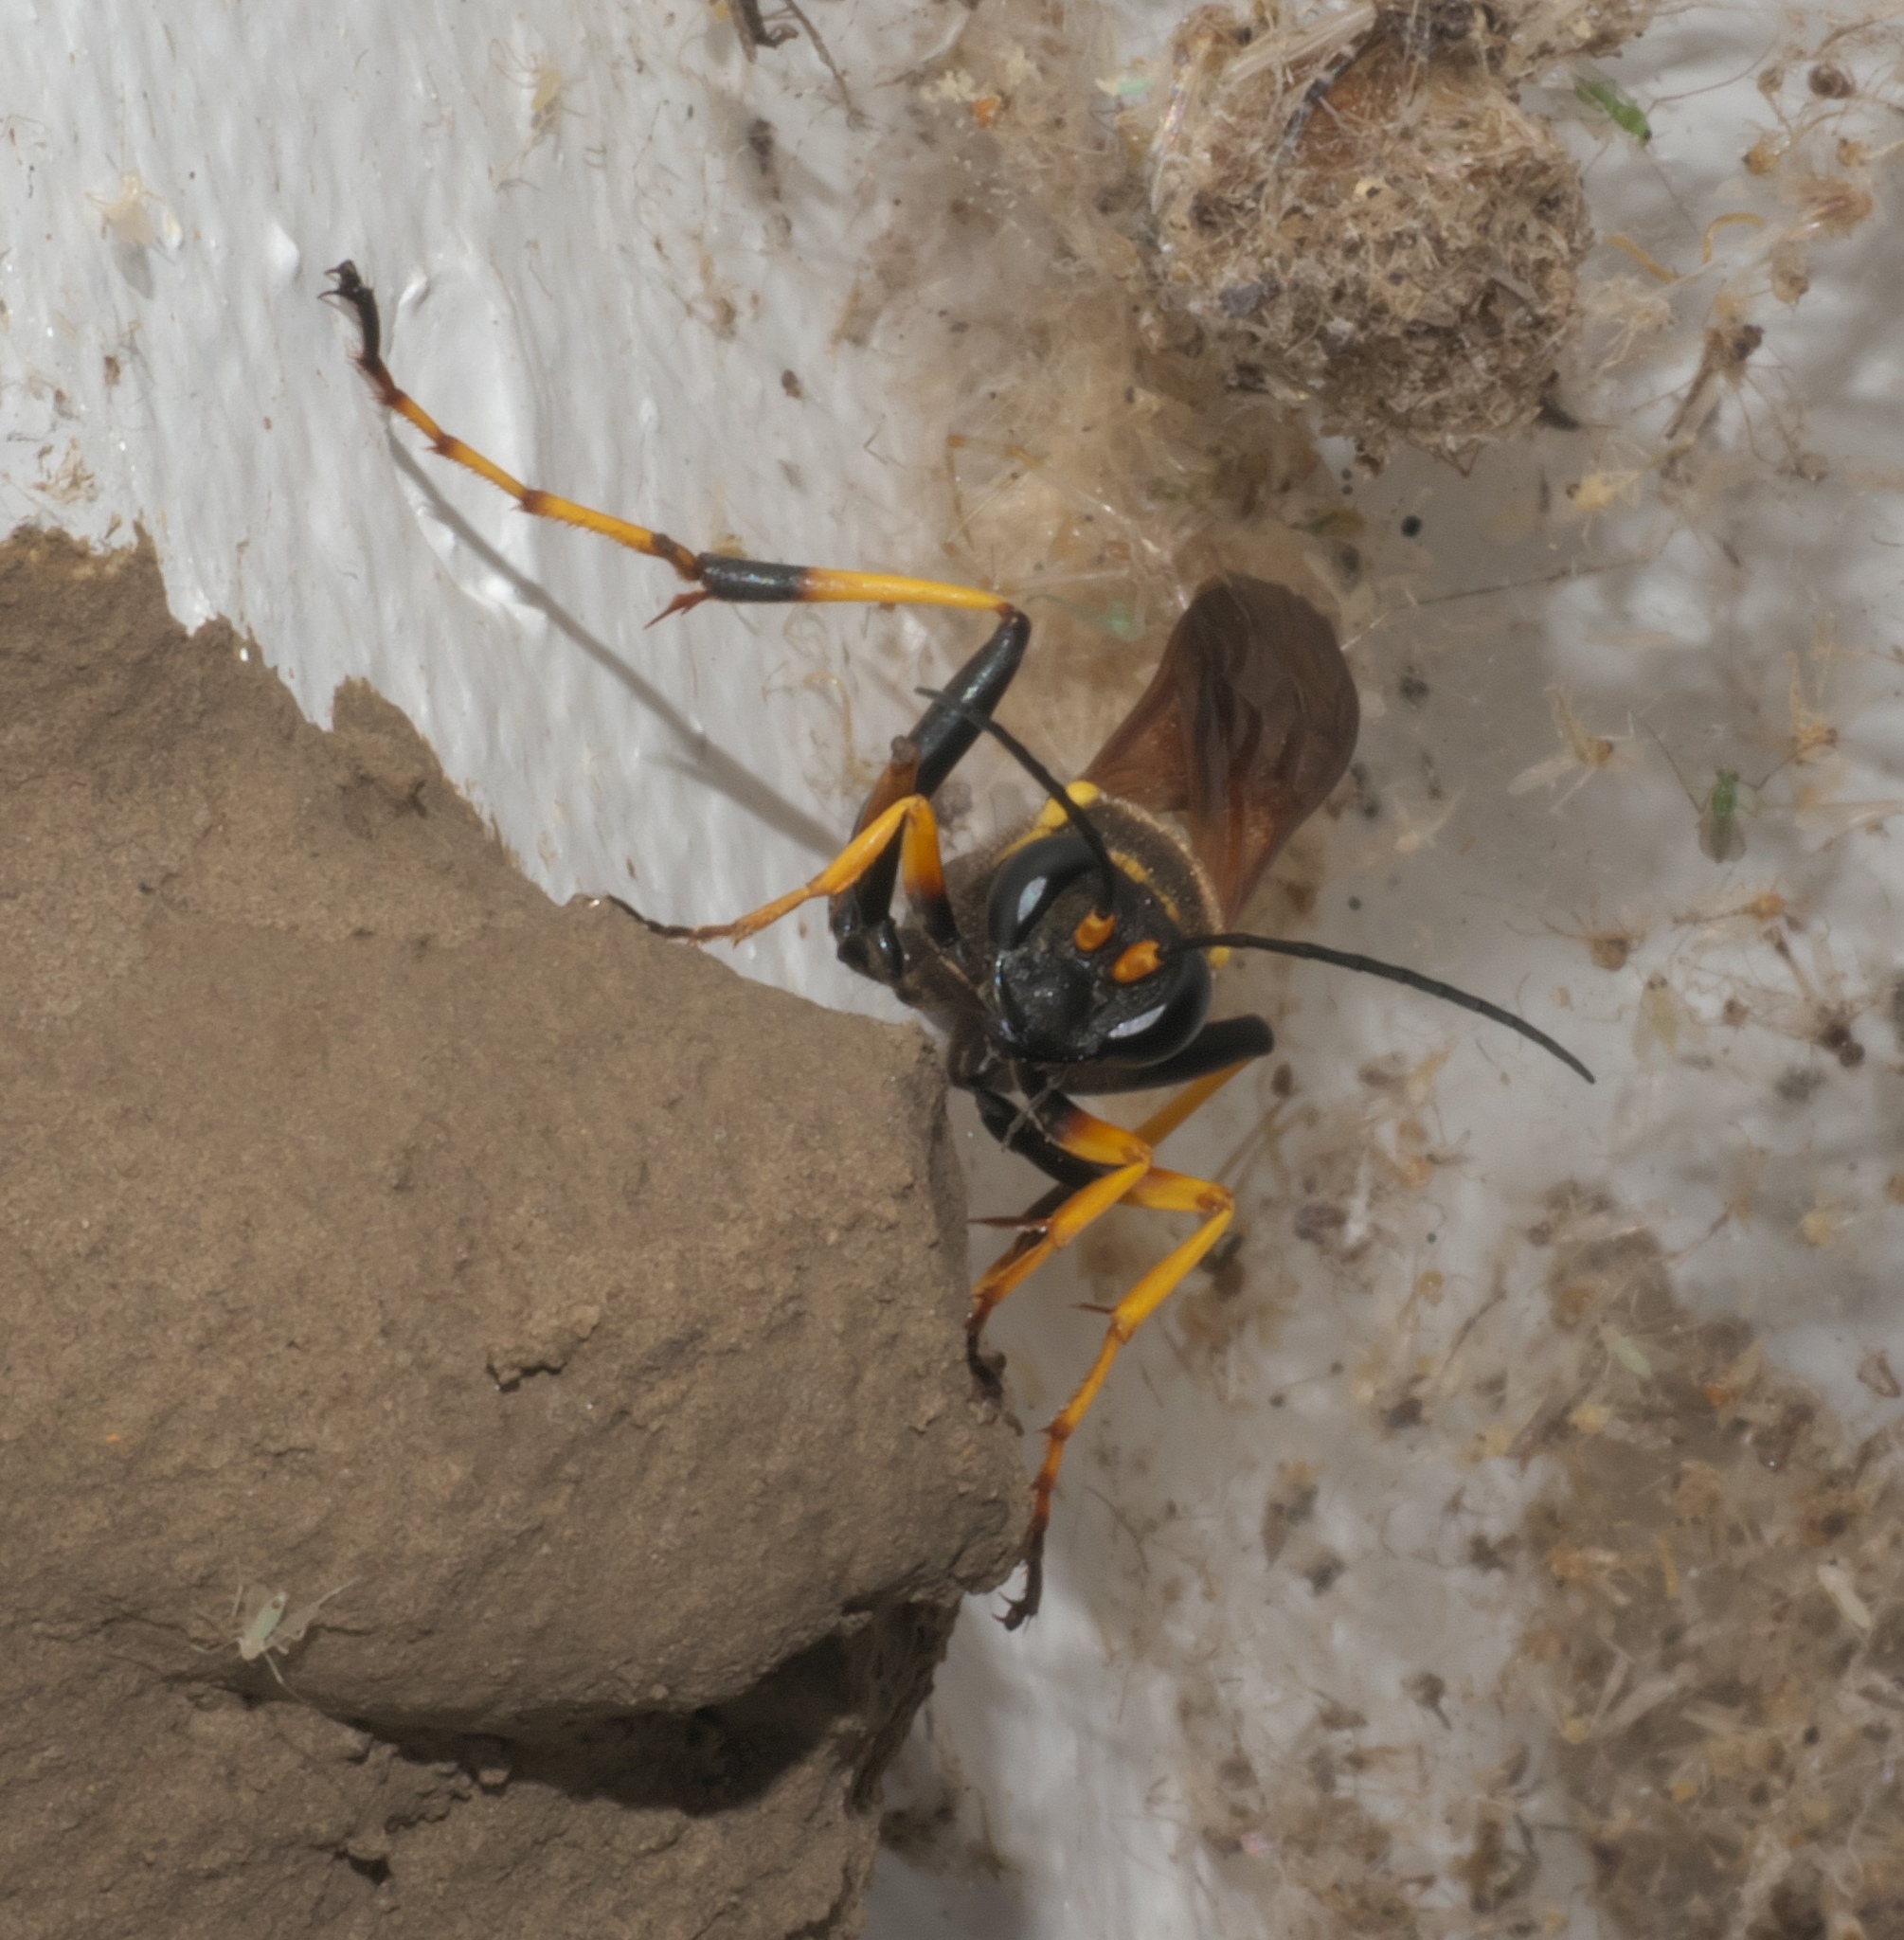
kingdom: Animalia
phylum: Arthropoda
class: Insecta
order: Hymenoptera
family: Sphecidae
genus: Sceliphron
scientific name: Sceliphron caementarium
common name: Mud dauber
